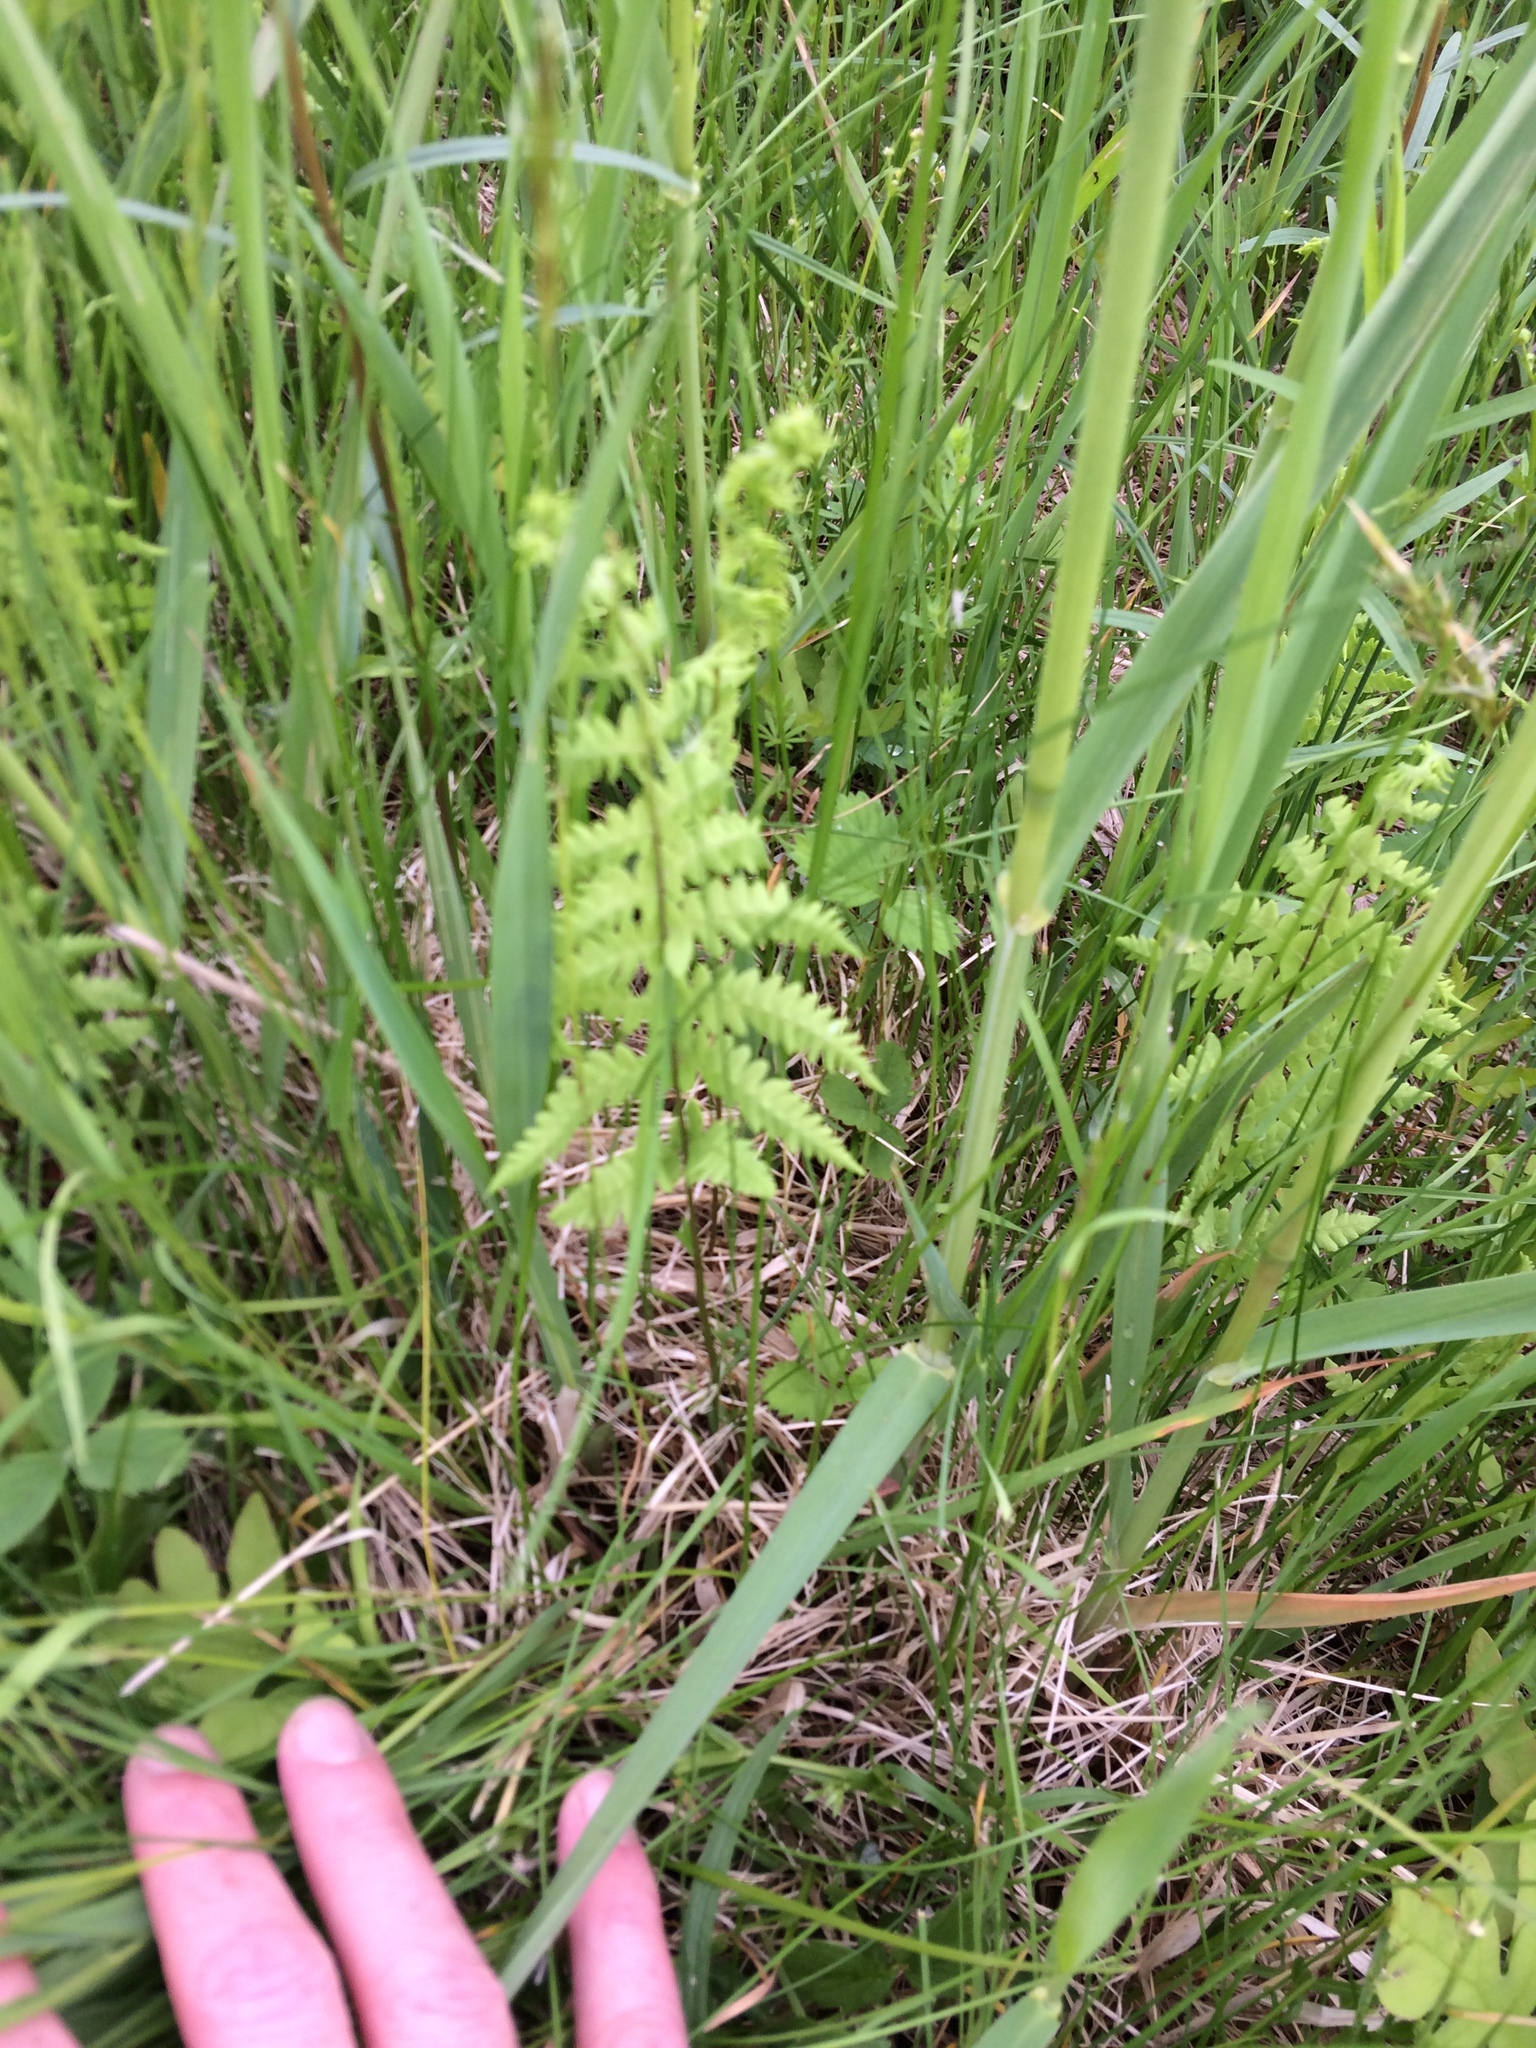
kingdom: Plantae
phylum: Tracheophyta
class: Polypodiopsida
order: Polypodiales
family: Thelypteridaceae
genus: Thelypteris
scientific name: Thelypteris palustris
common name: Marsh fern
